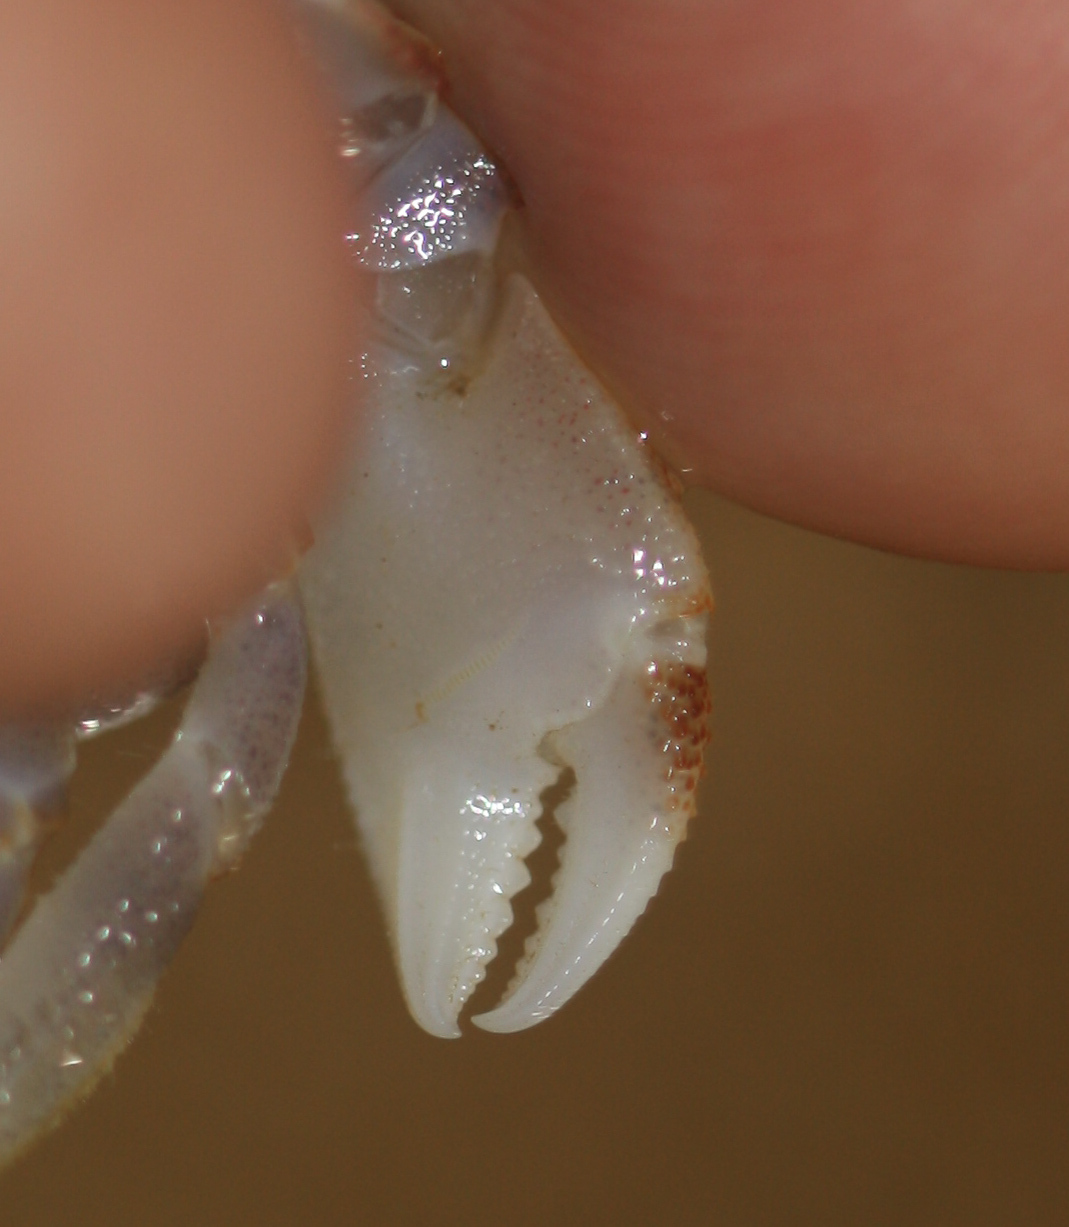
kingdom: Animalia
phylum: Arthropoda
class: Malacostraca
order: Decapoda
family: Ocypodidae
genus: Ocypode
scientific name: Ocypode ceratophthalmus
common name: Indo-pacific ghost crab
